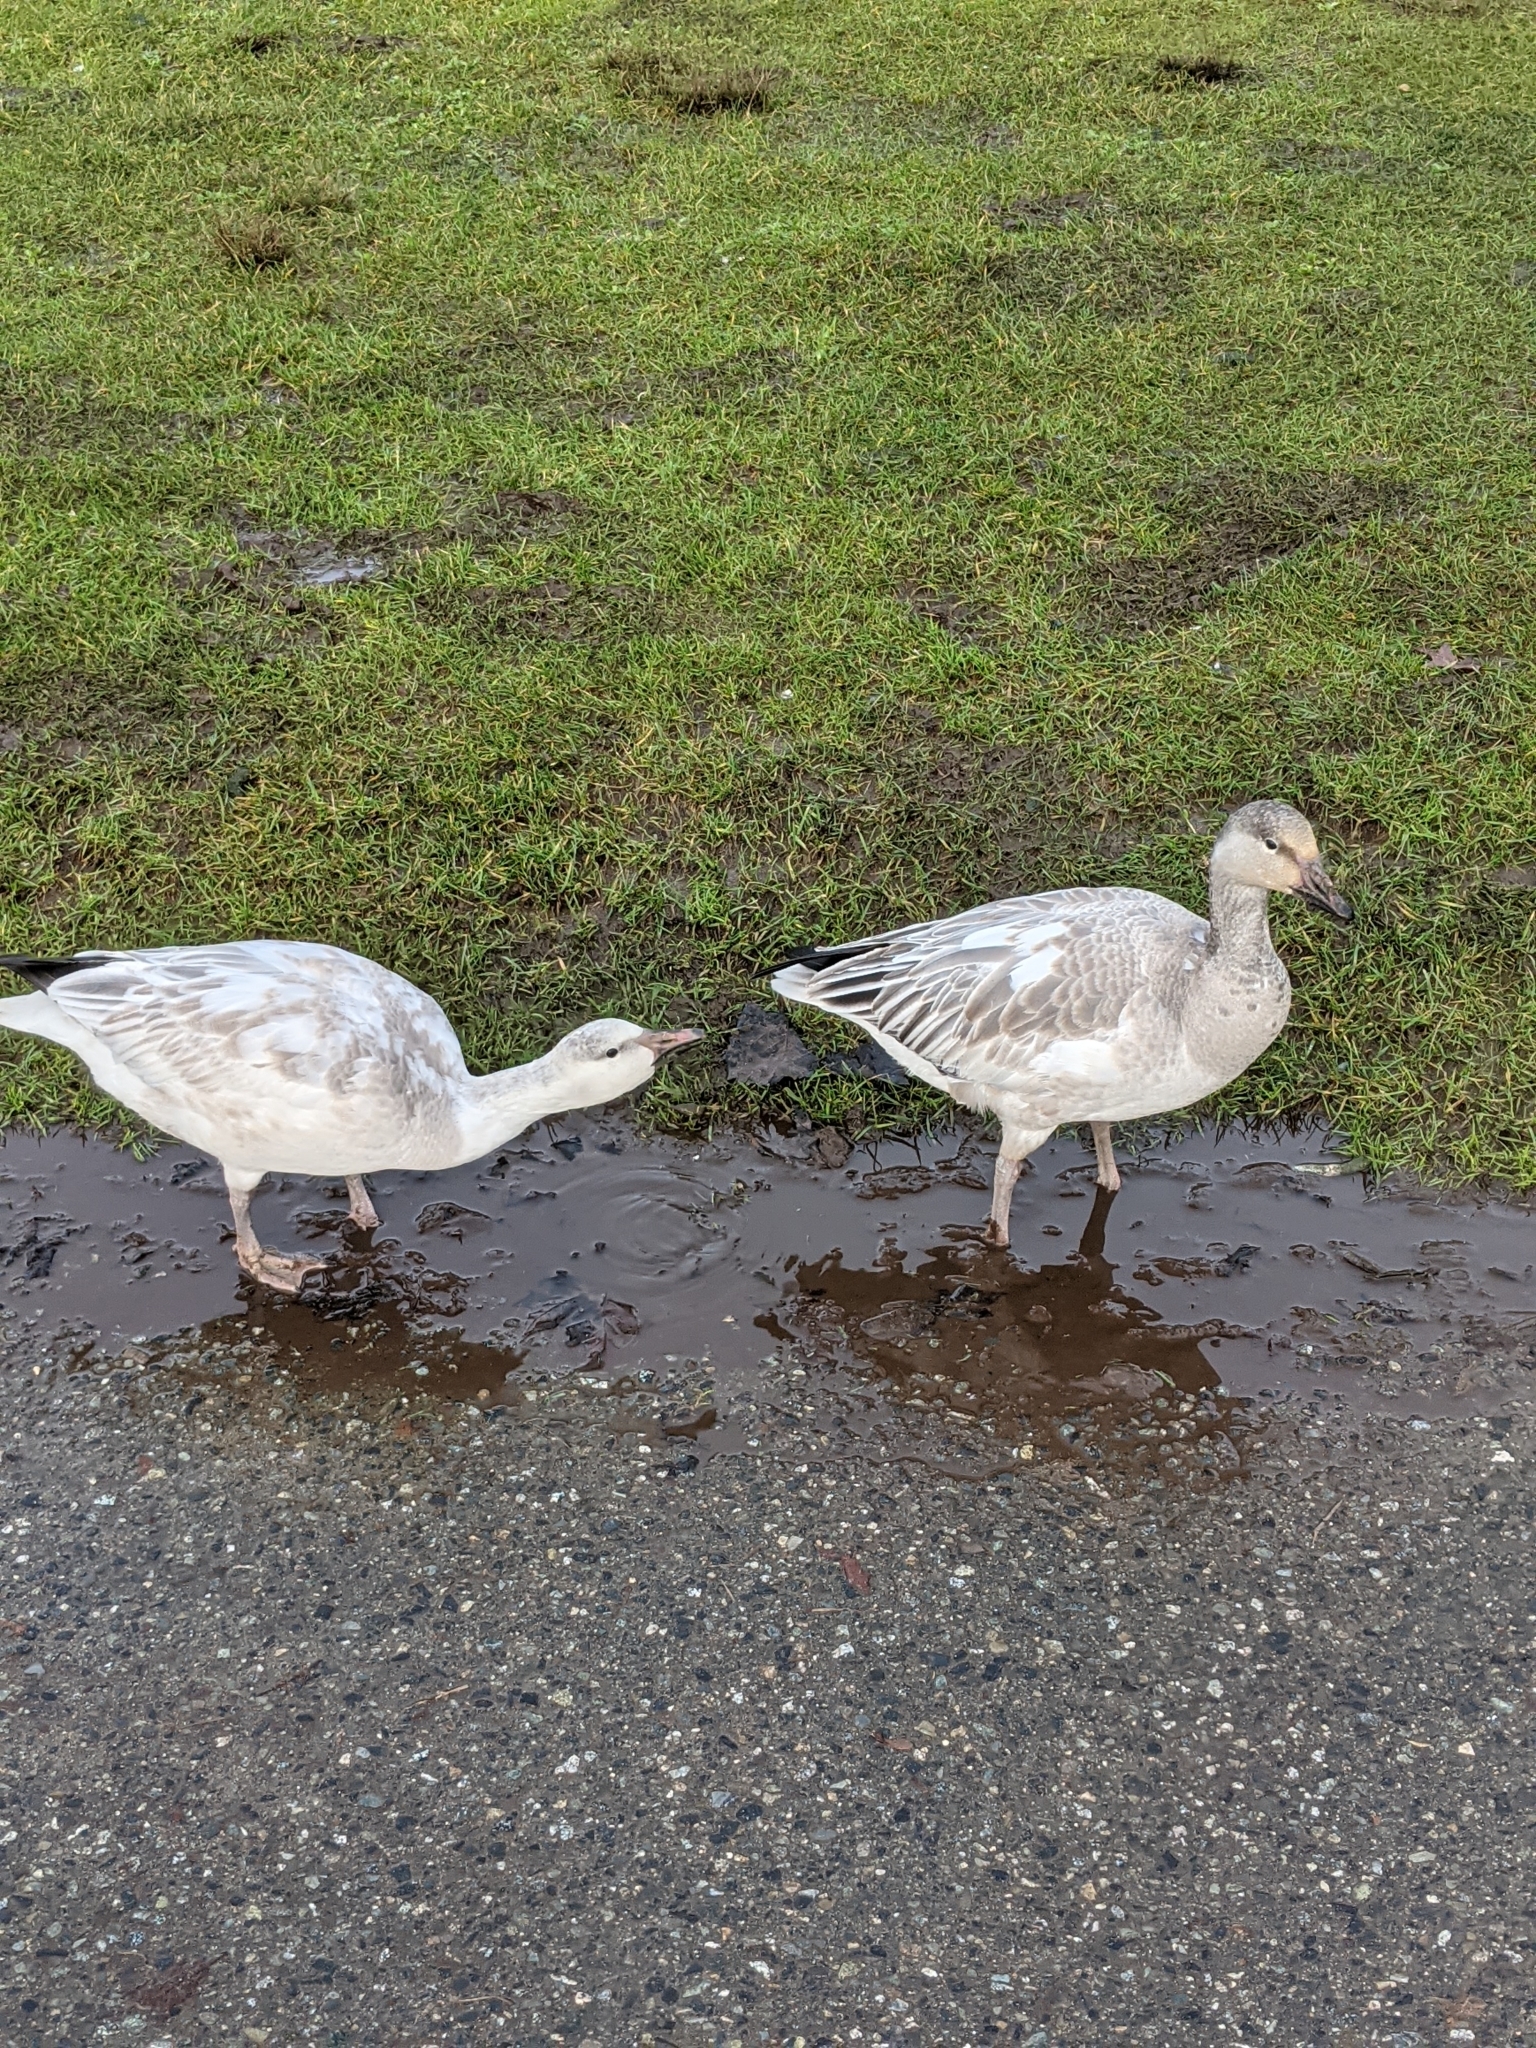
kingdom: Animalia
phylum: Chordata
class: Aves
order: Anseriformes
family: Anatidae
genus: Anser
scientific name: Anser caerulescens
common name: Snow goose
